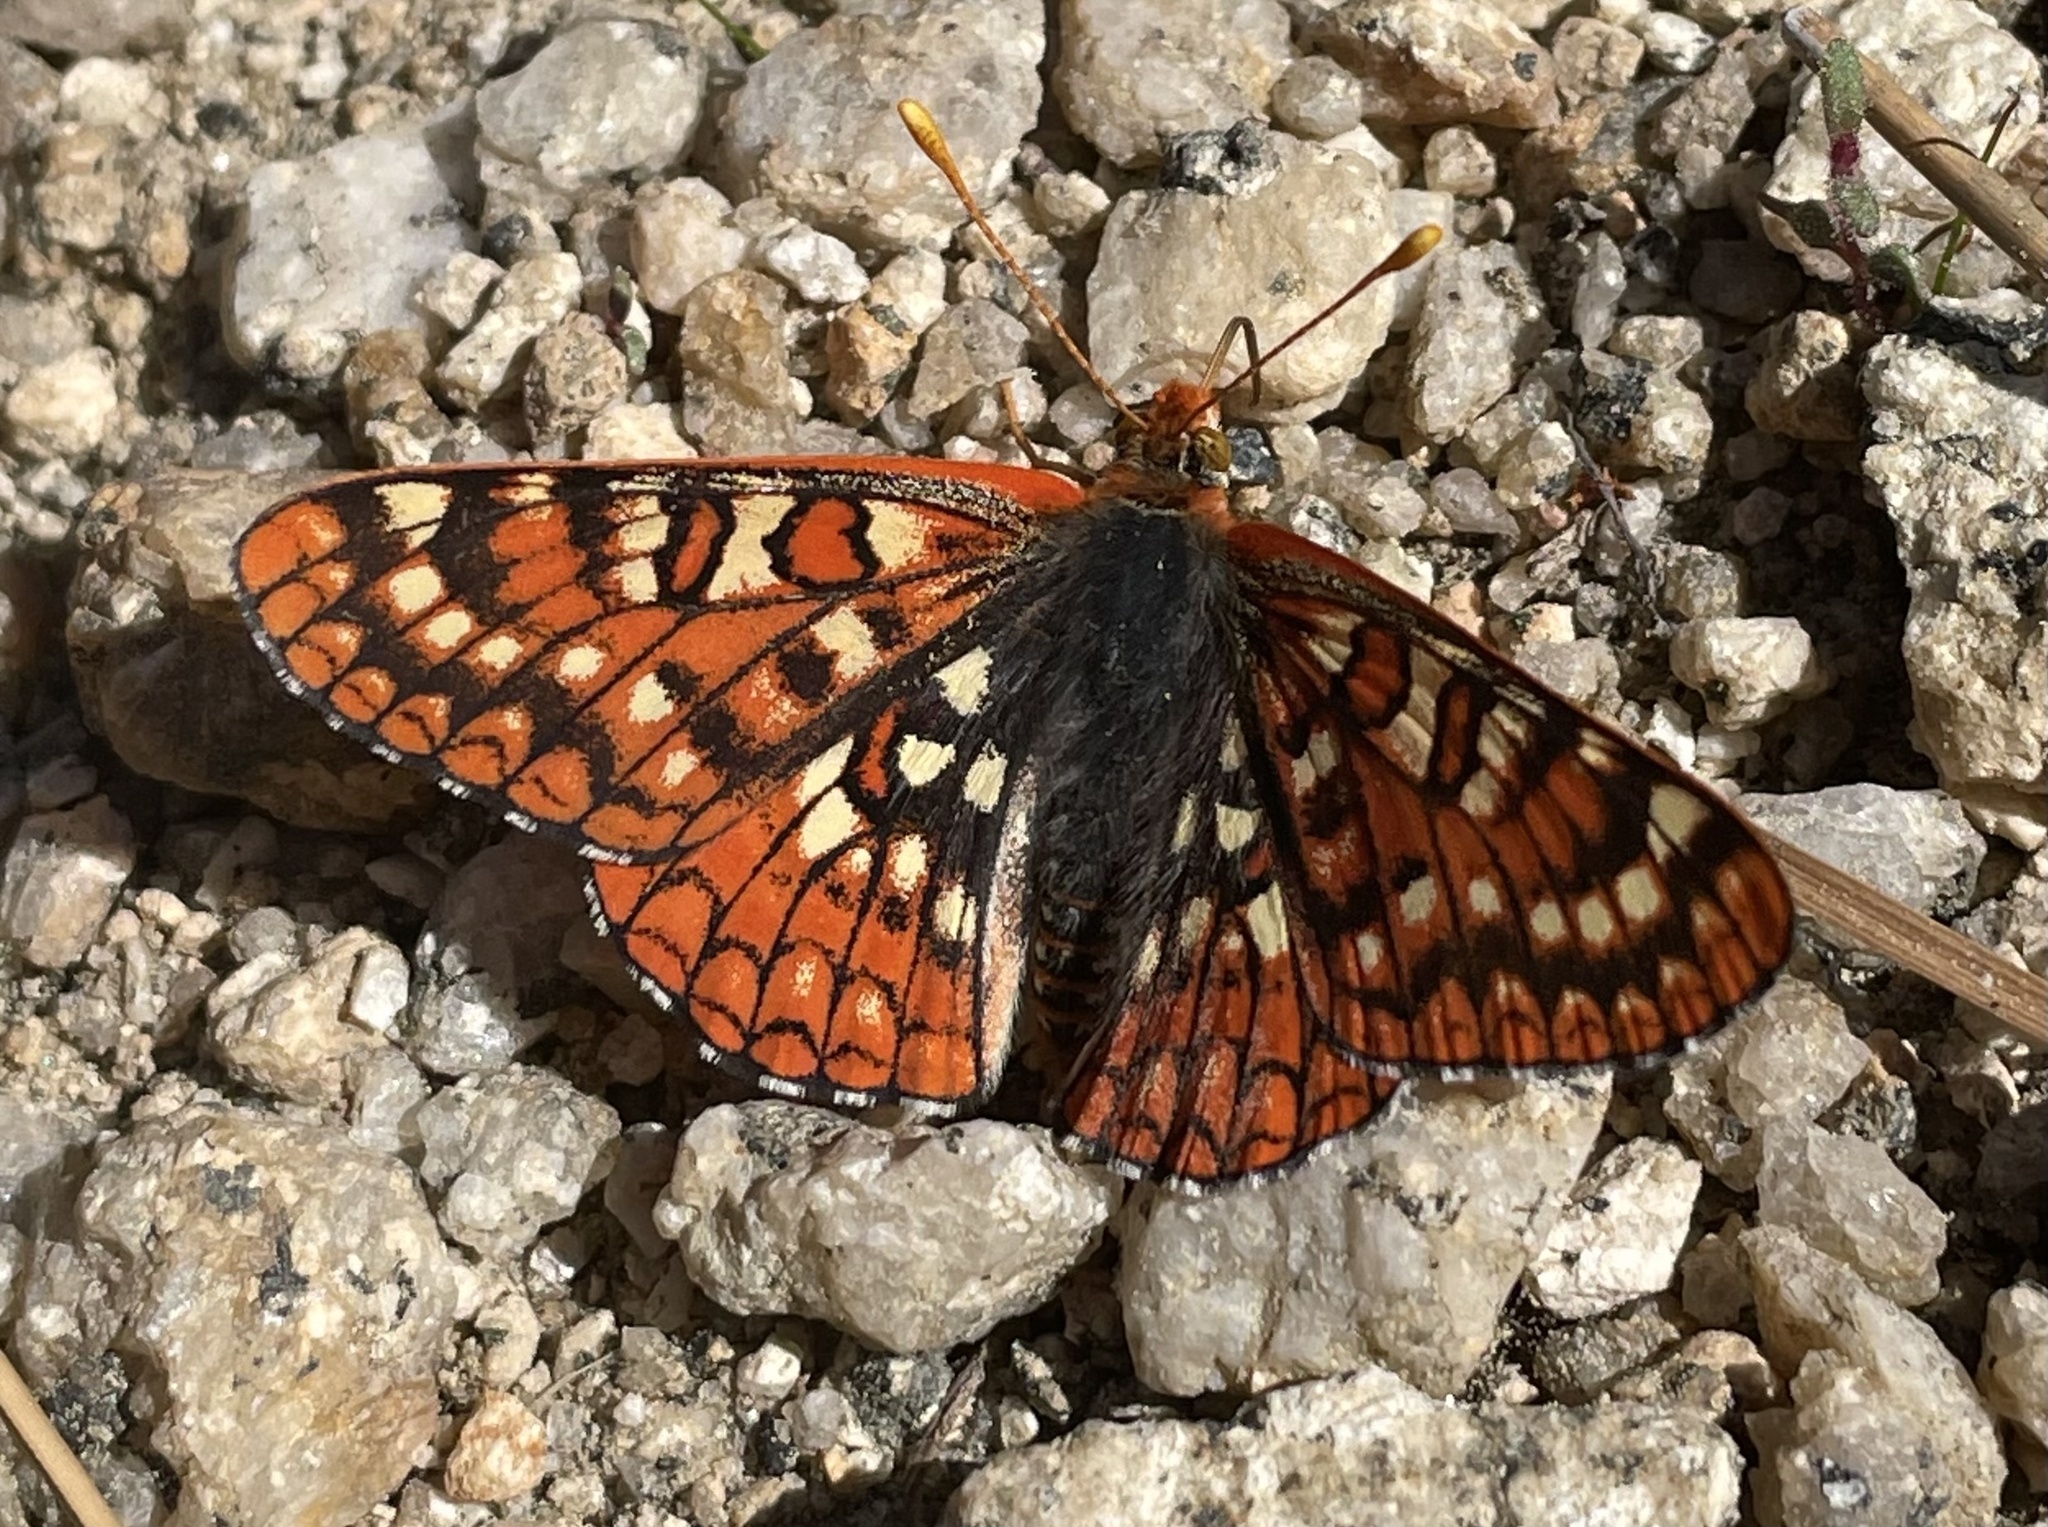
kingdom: Animalia
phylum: Arthropoda
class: Insecta
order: Lepidoptera
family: Nymphalidae
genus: Occidryas
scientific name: Occidryas chalcedona
